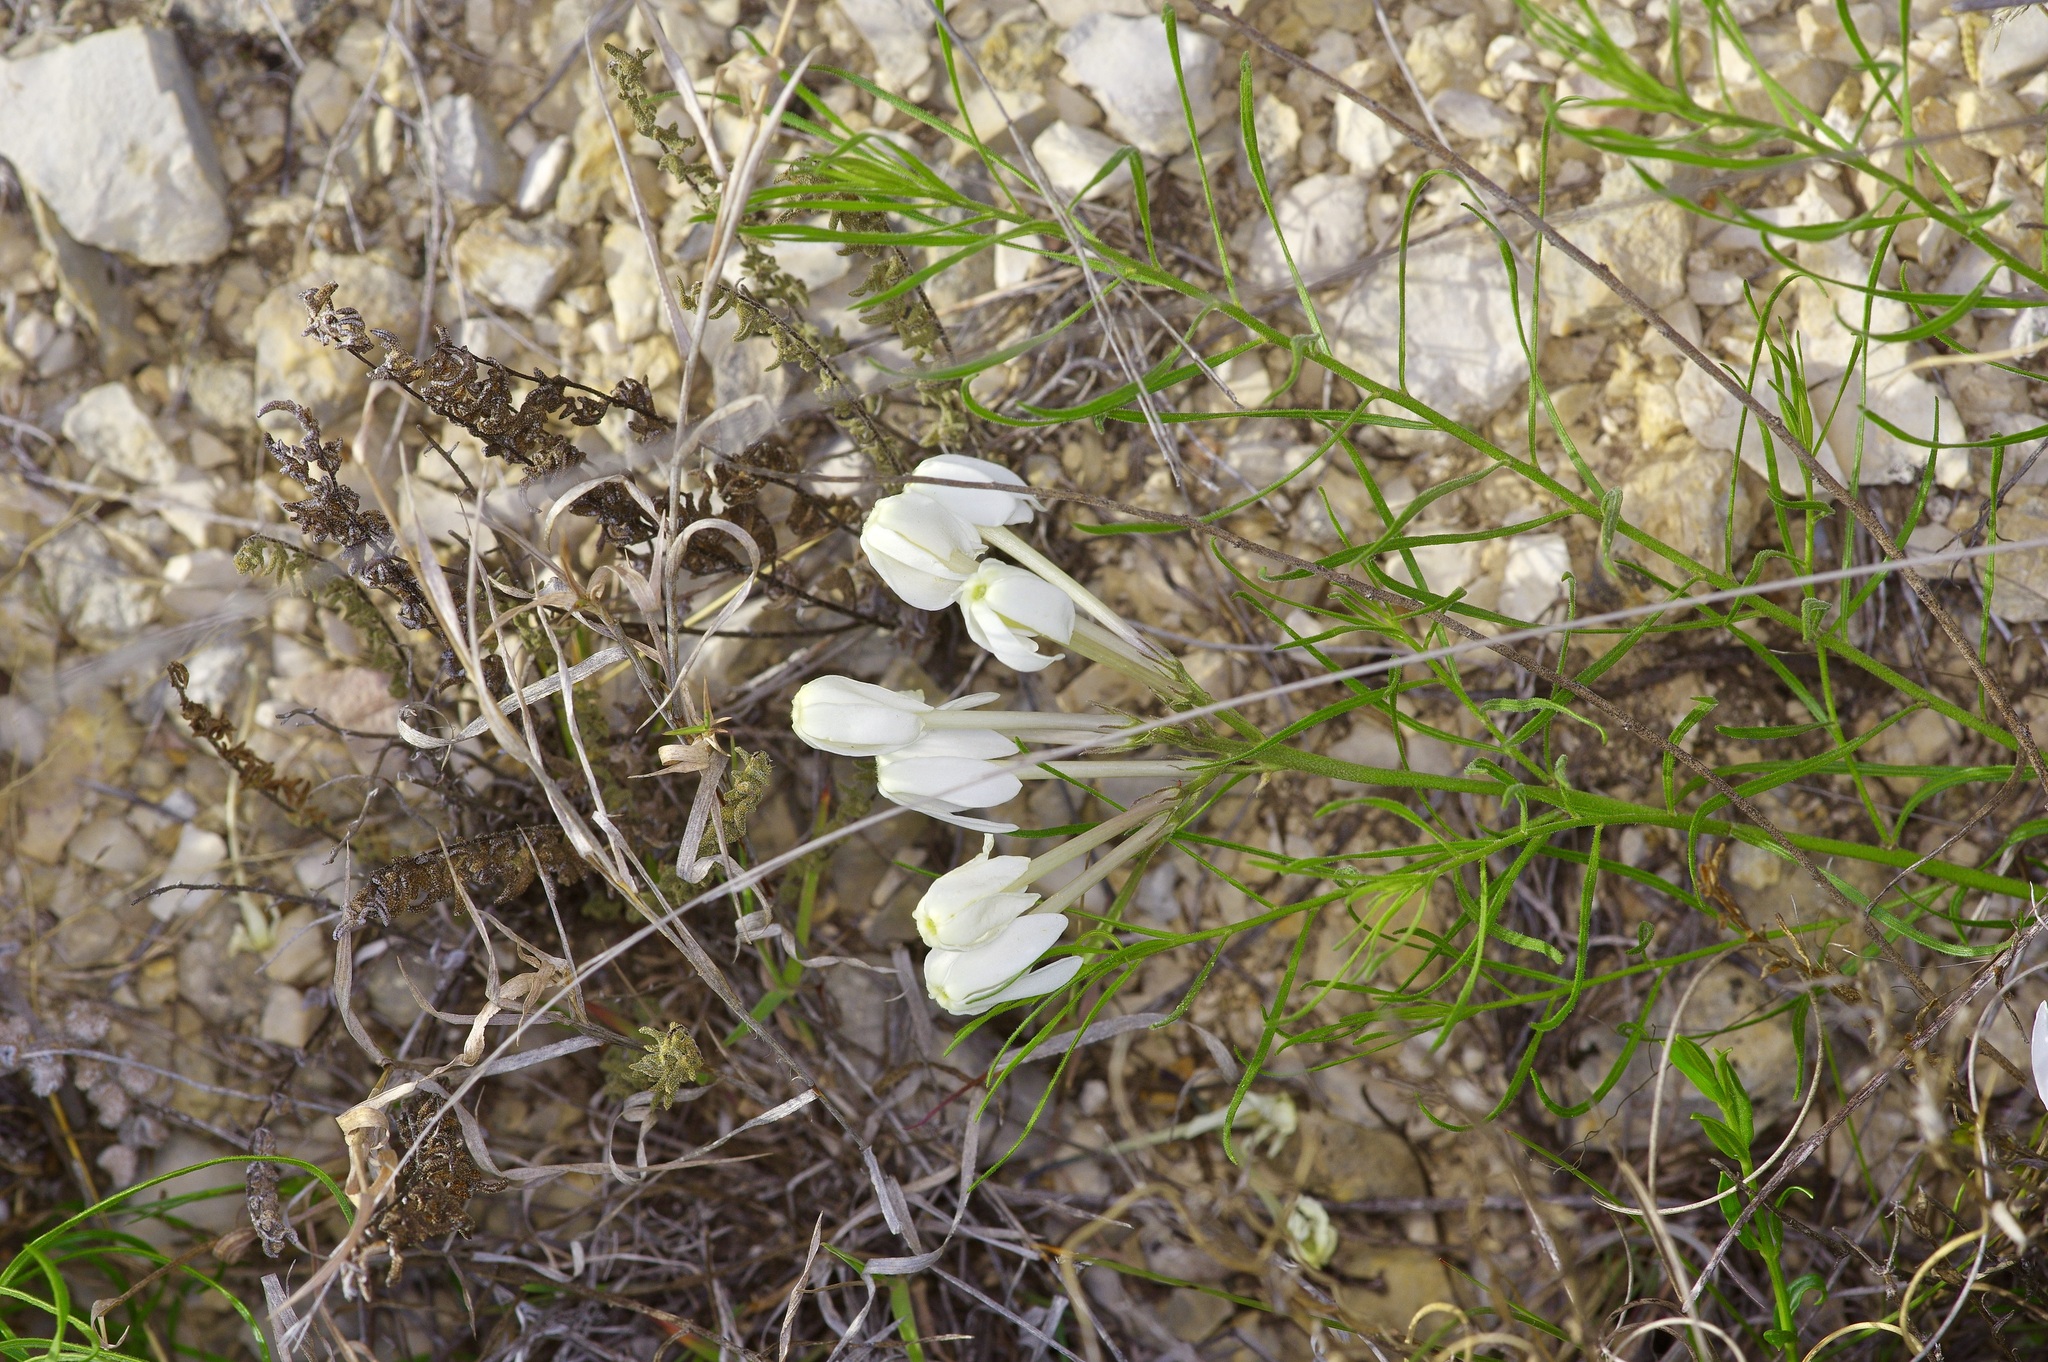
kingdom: Plantae
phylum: Tracheophyta
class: Magnoliopsida
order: Gentianales
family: Apocynaceae
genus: Amsonia
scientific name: Amsonia longiflora
